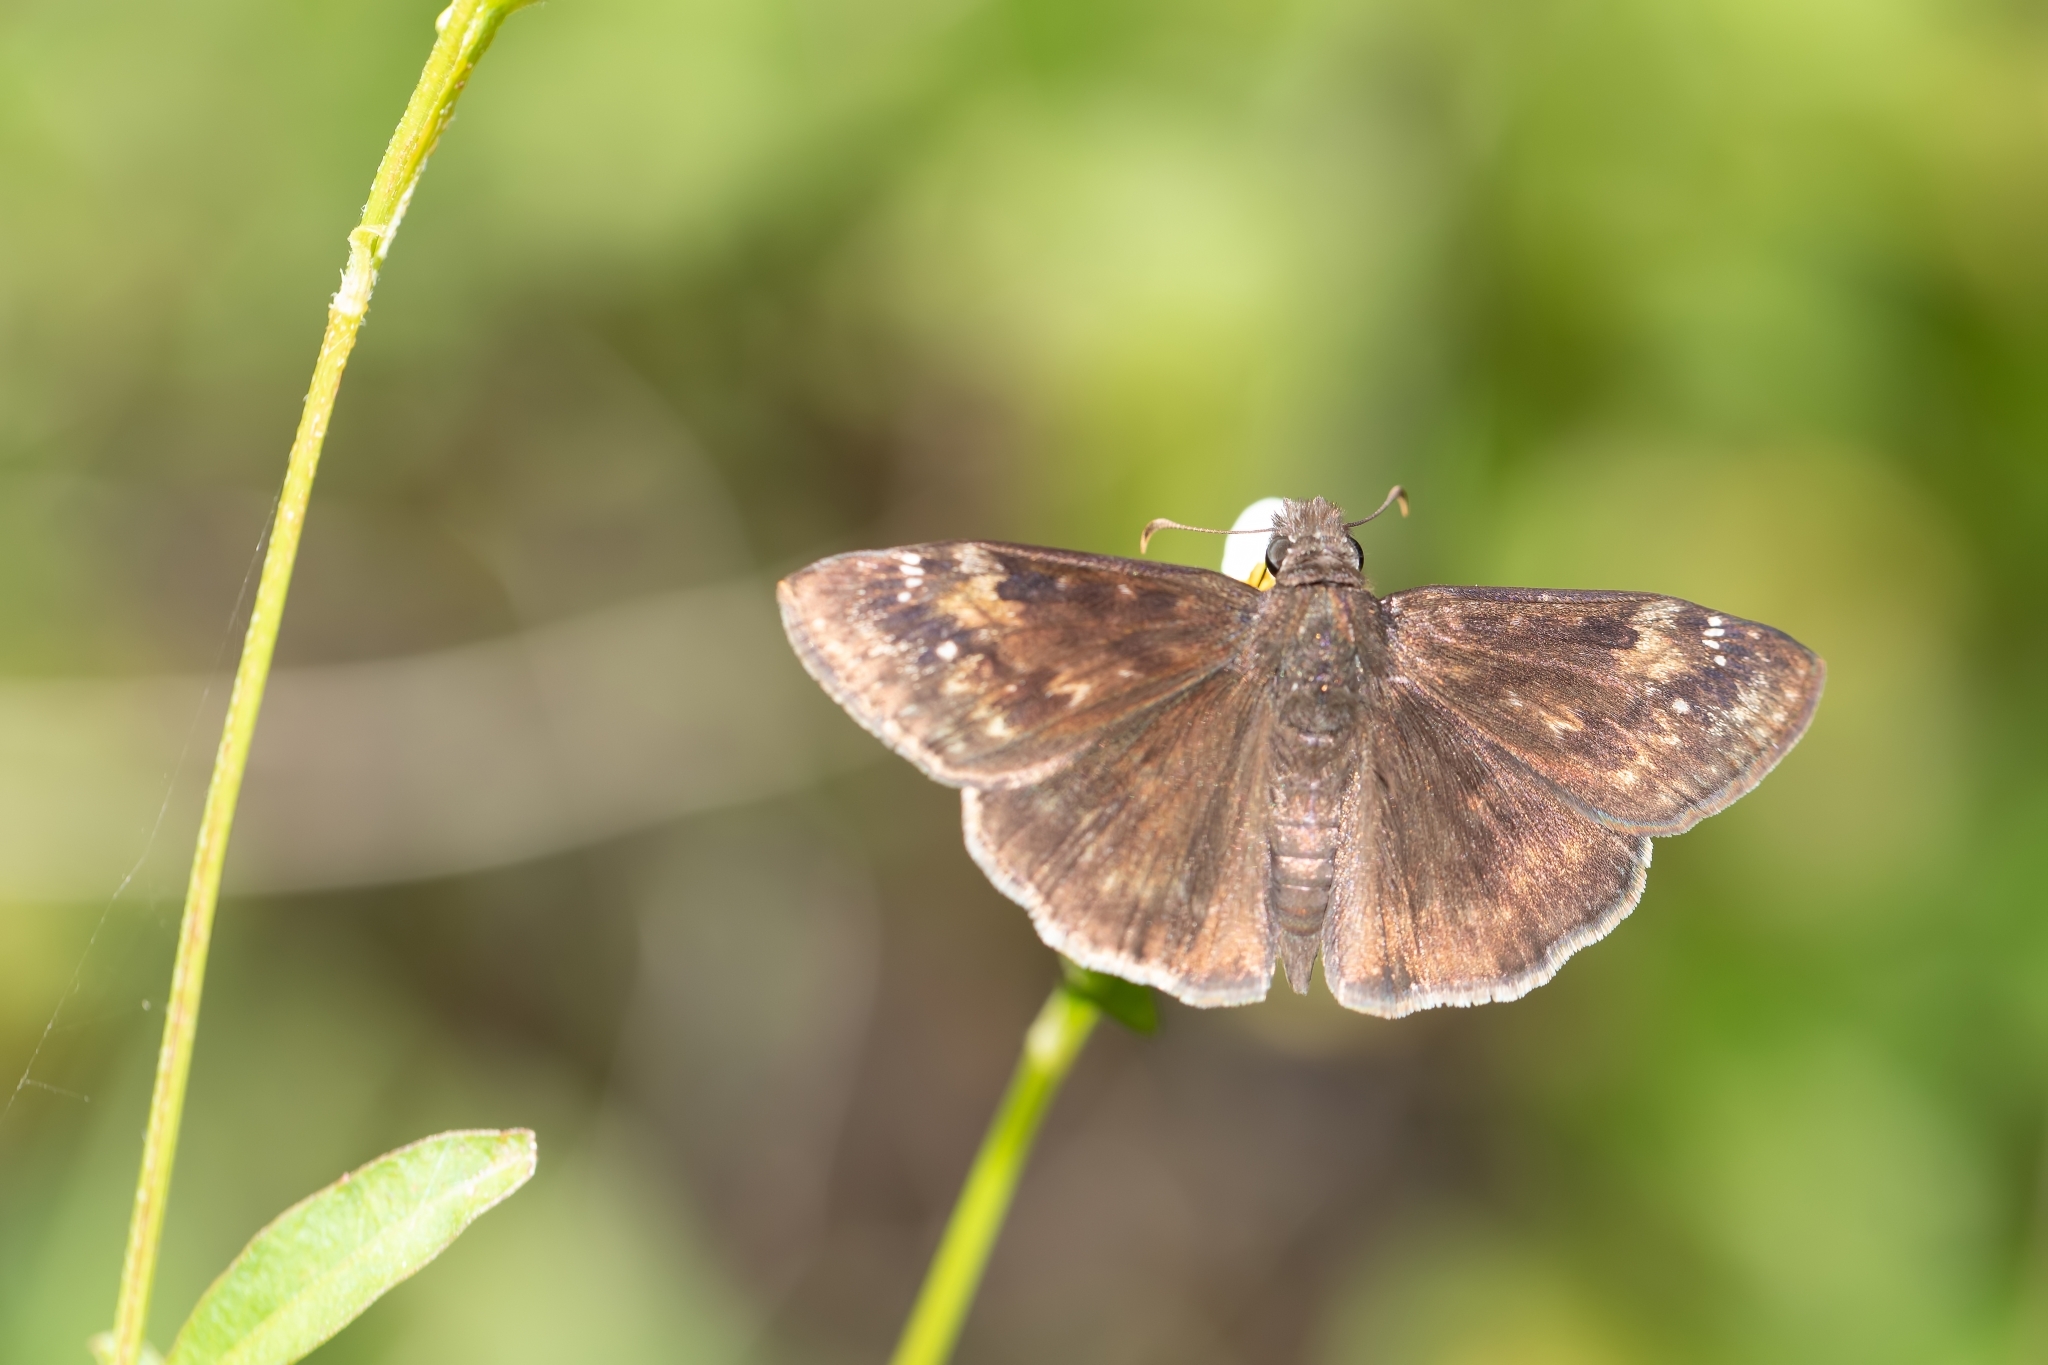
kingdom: Animalia
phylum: Arthropoda
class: Insecta
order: Lepidoptera
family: Hesperiidae
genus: Erynnis
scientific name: Erynnis horatius
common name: Horace's duskywing
